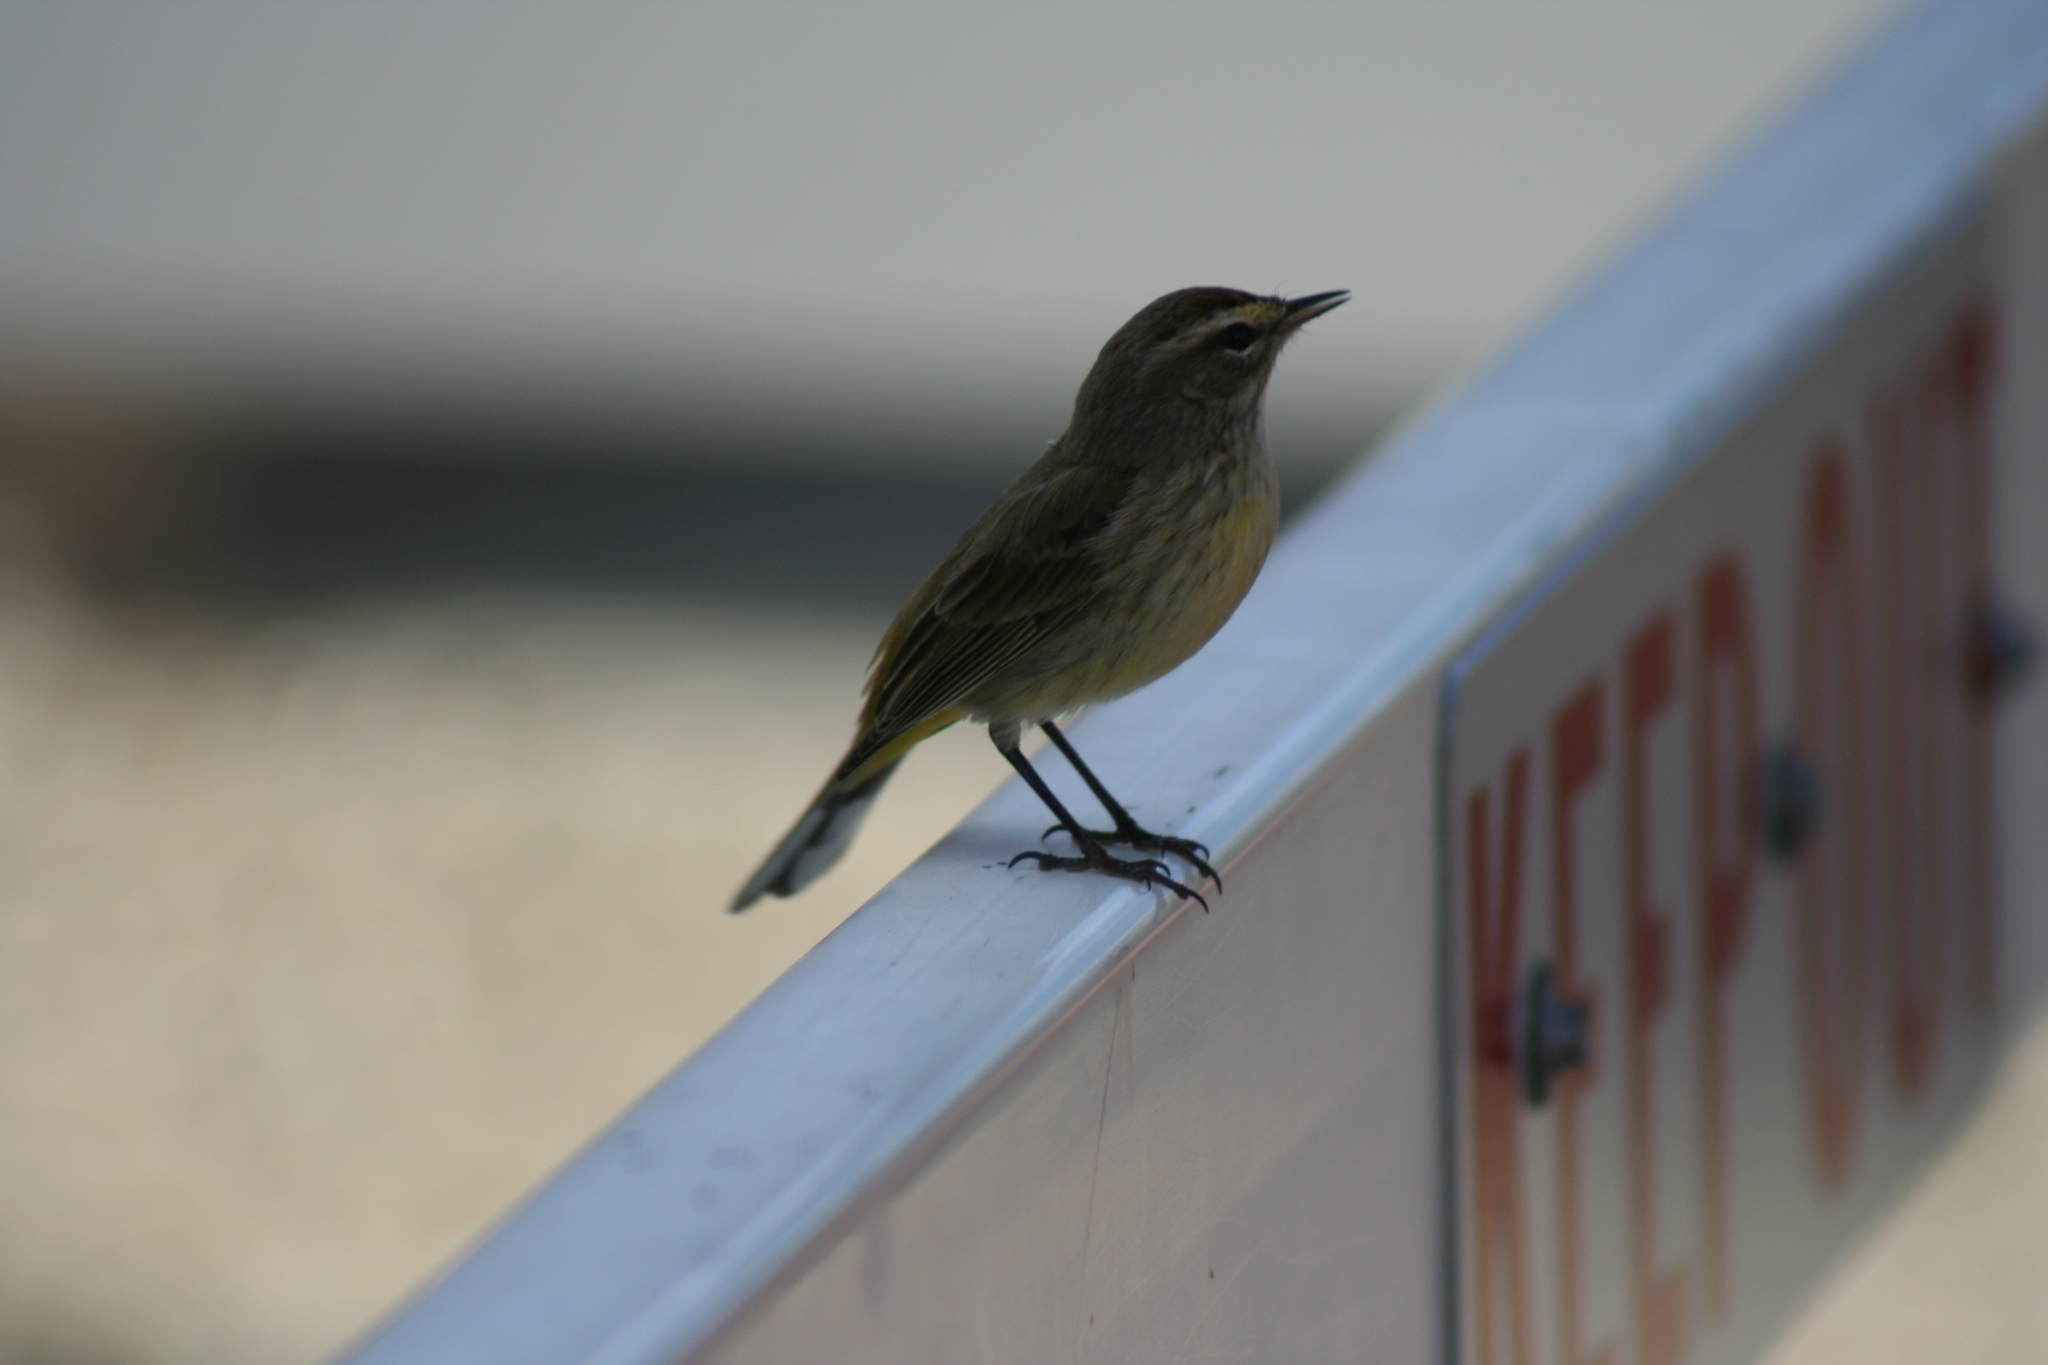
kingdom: Animalia
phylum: Chordata
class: Aves
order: Passeriformes
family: Parulidae
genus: Setophaga
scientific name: Setophaga palmarum
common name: Palm warbler
